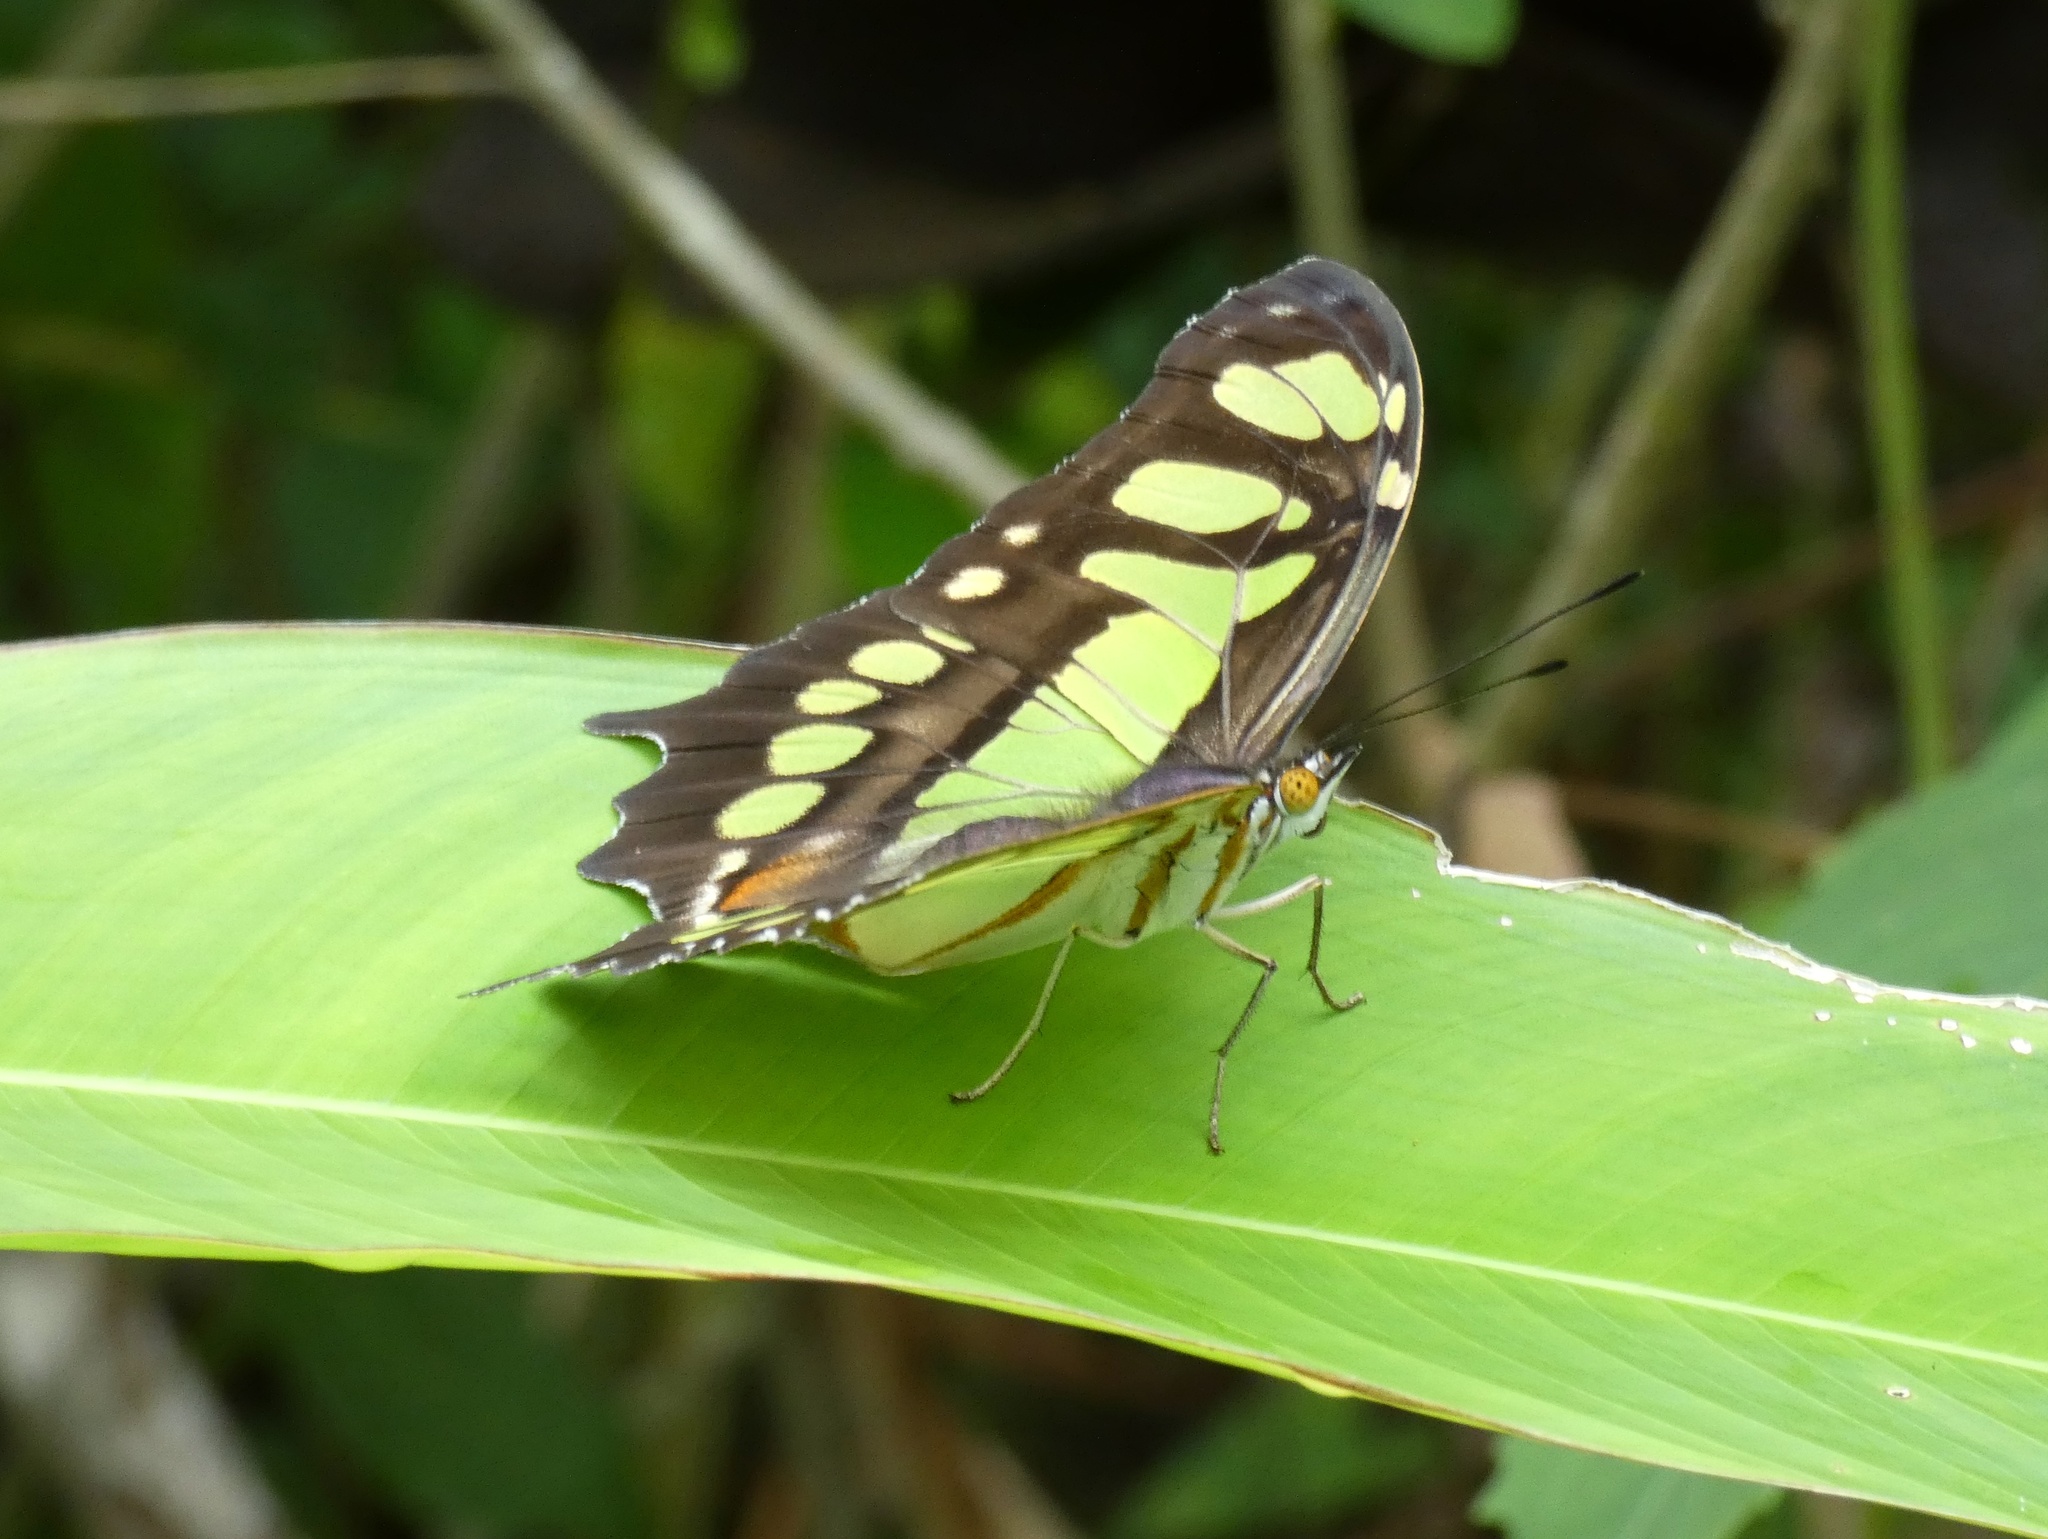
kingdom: Animalia
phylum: Arthropoda
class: Insecta
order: Lepidoptera
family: Nymphalidae
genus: Siproeta
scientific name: Siproeta stelenes
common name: Malachite
